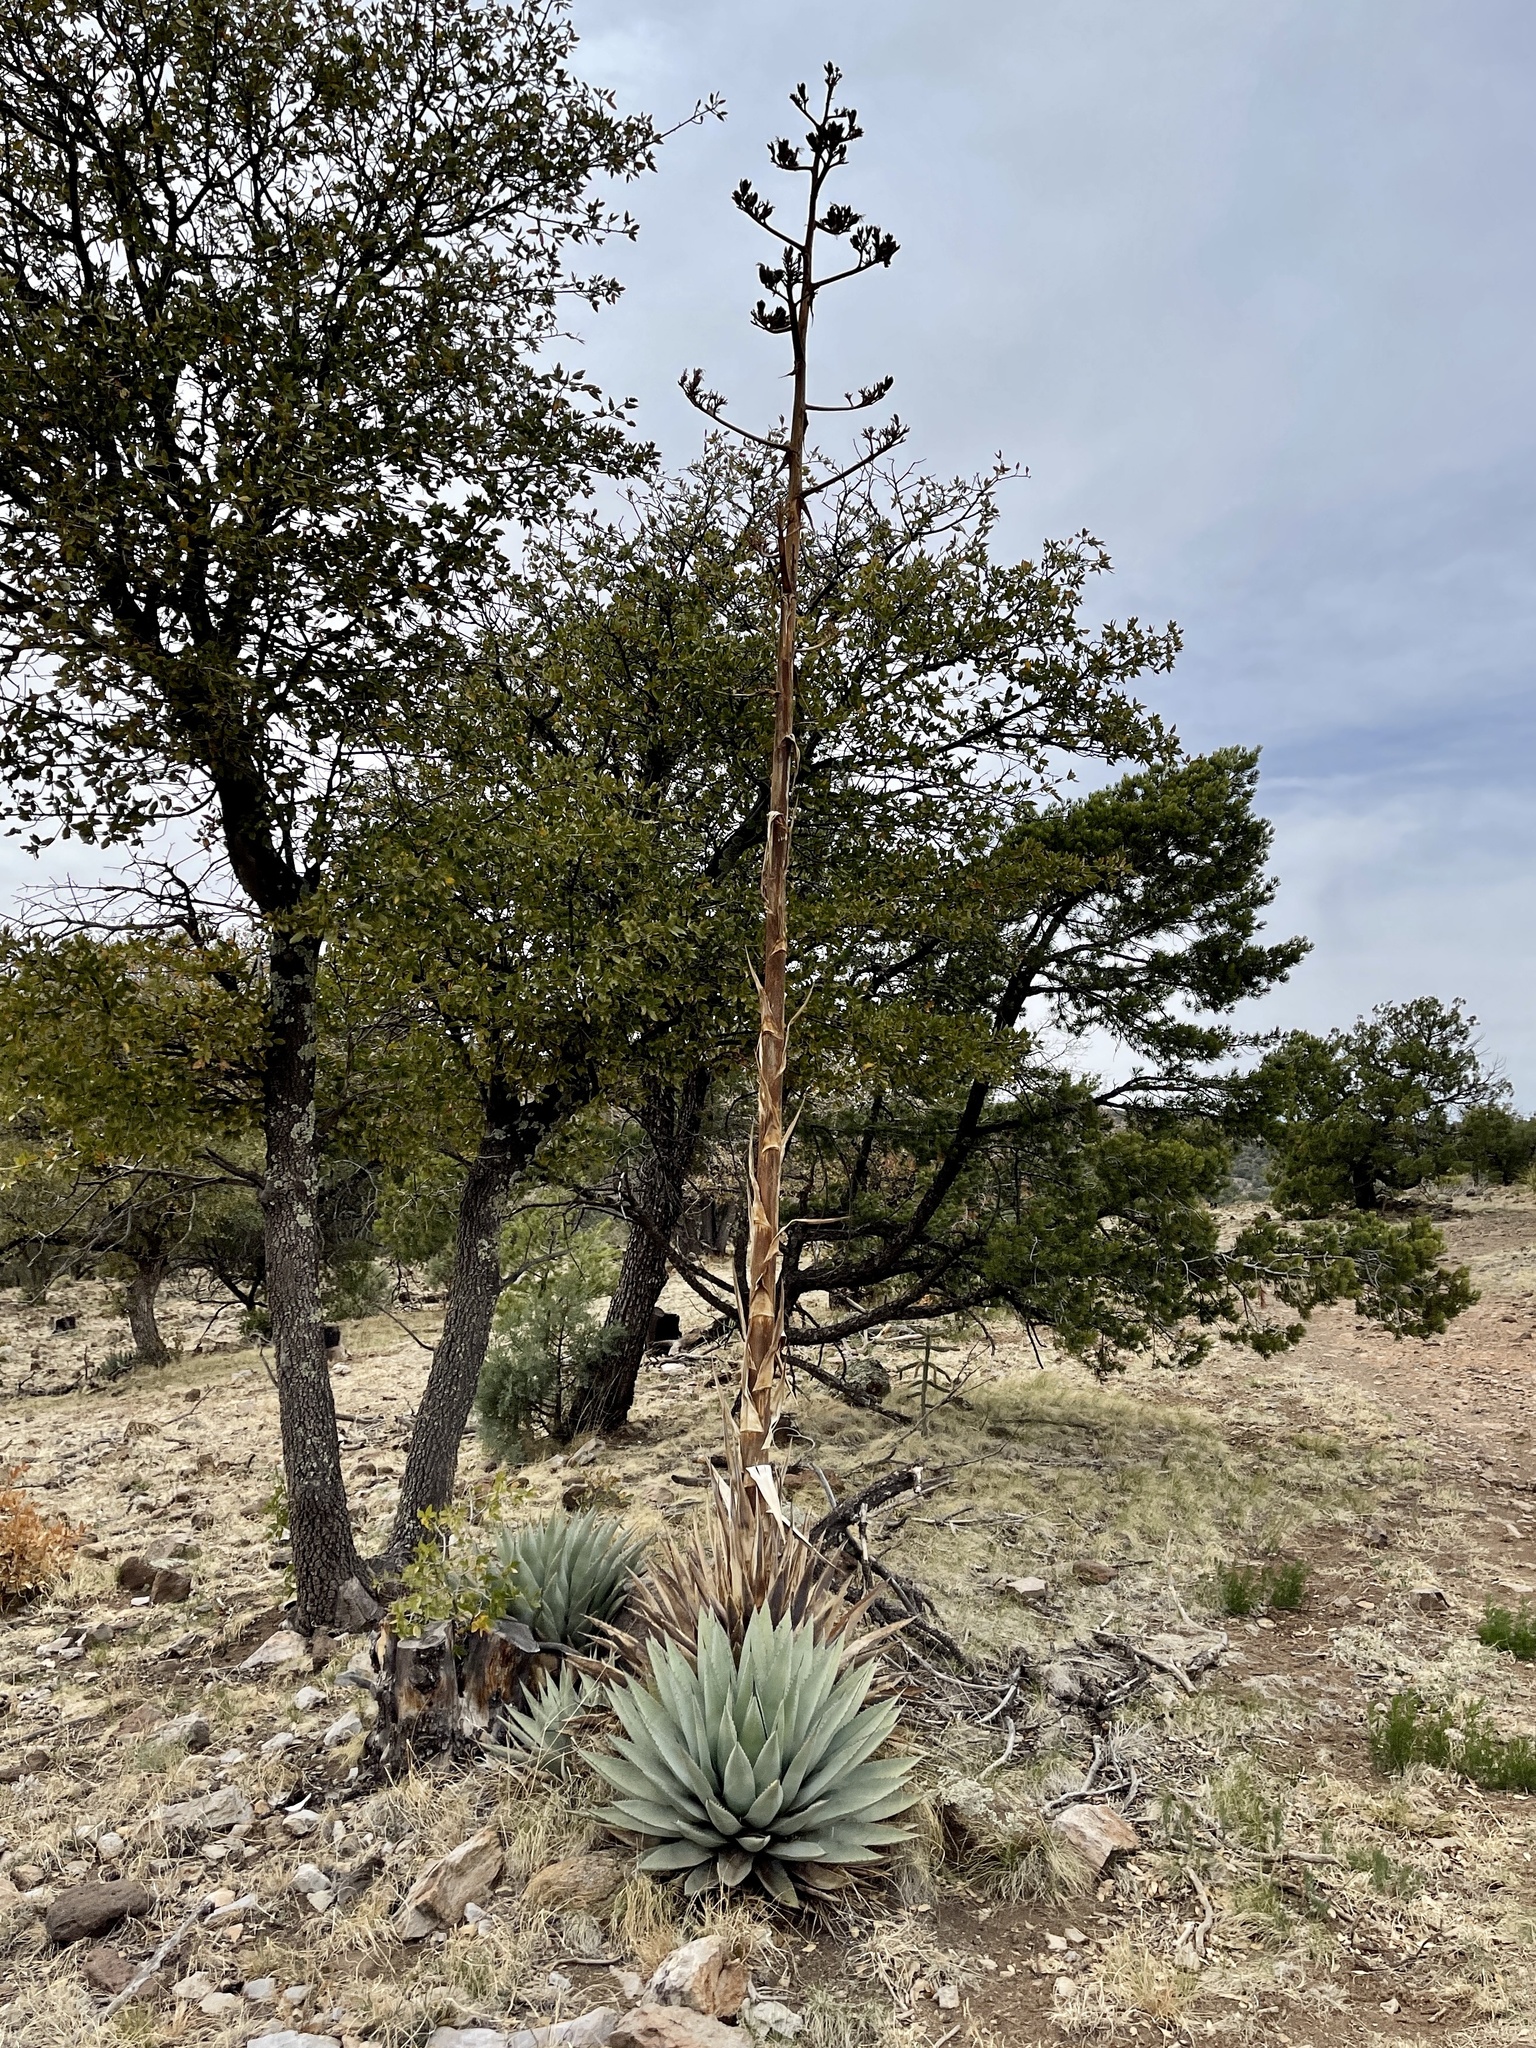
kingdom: Plantae
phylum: Tracheophyta
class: Liliopsida
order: Asparagales
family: Asparagaceae
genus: Agave
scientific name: Agave parryi
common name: Parry's agave
